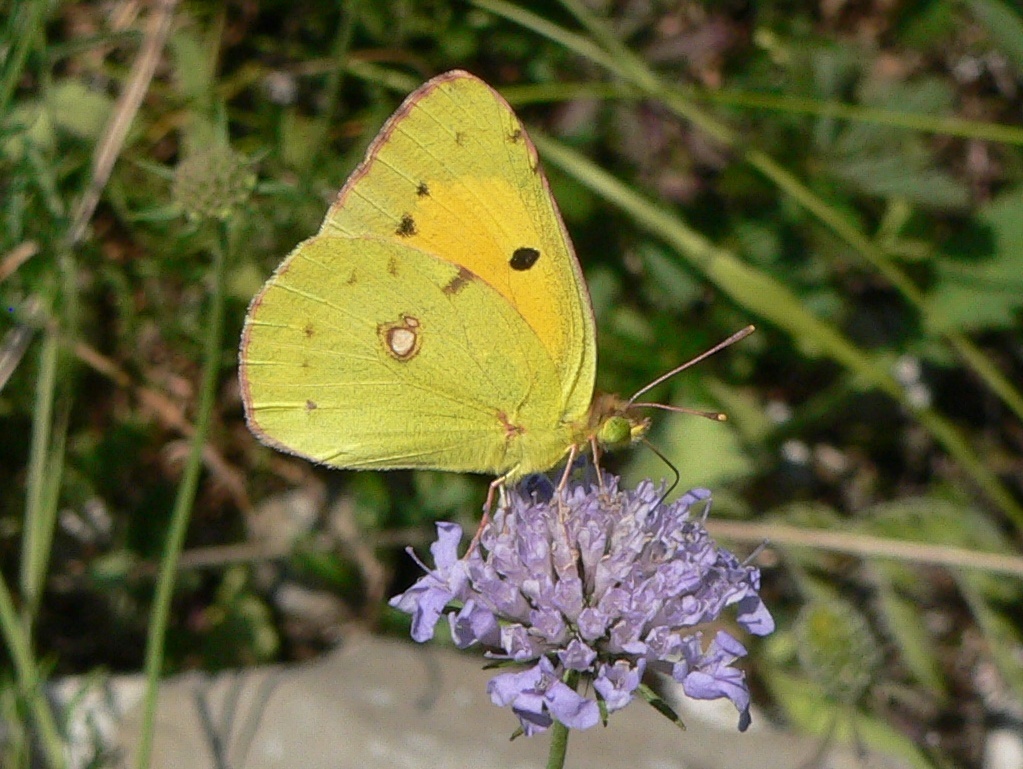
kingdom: Animalia
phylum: Arthropoda
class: Insecta
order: Lepidoptera
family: Pieridae
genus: Colias
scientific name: Colias croceus
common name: Clouded yellow
